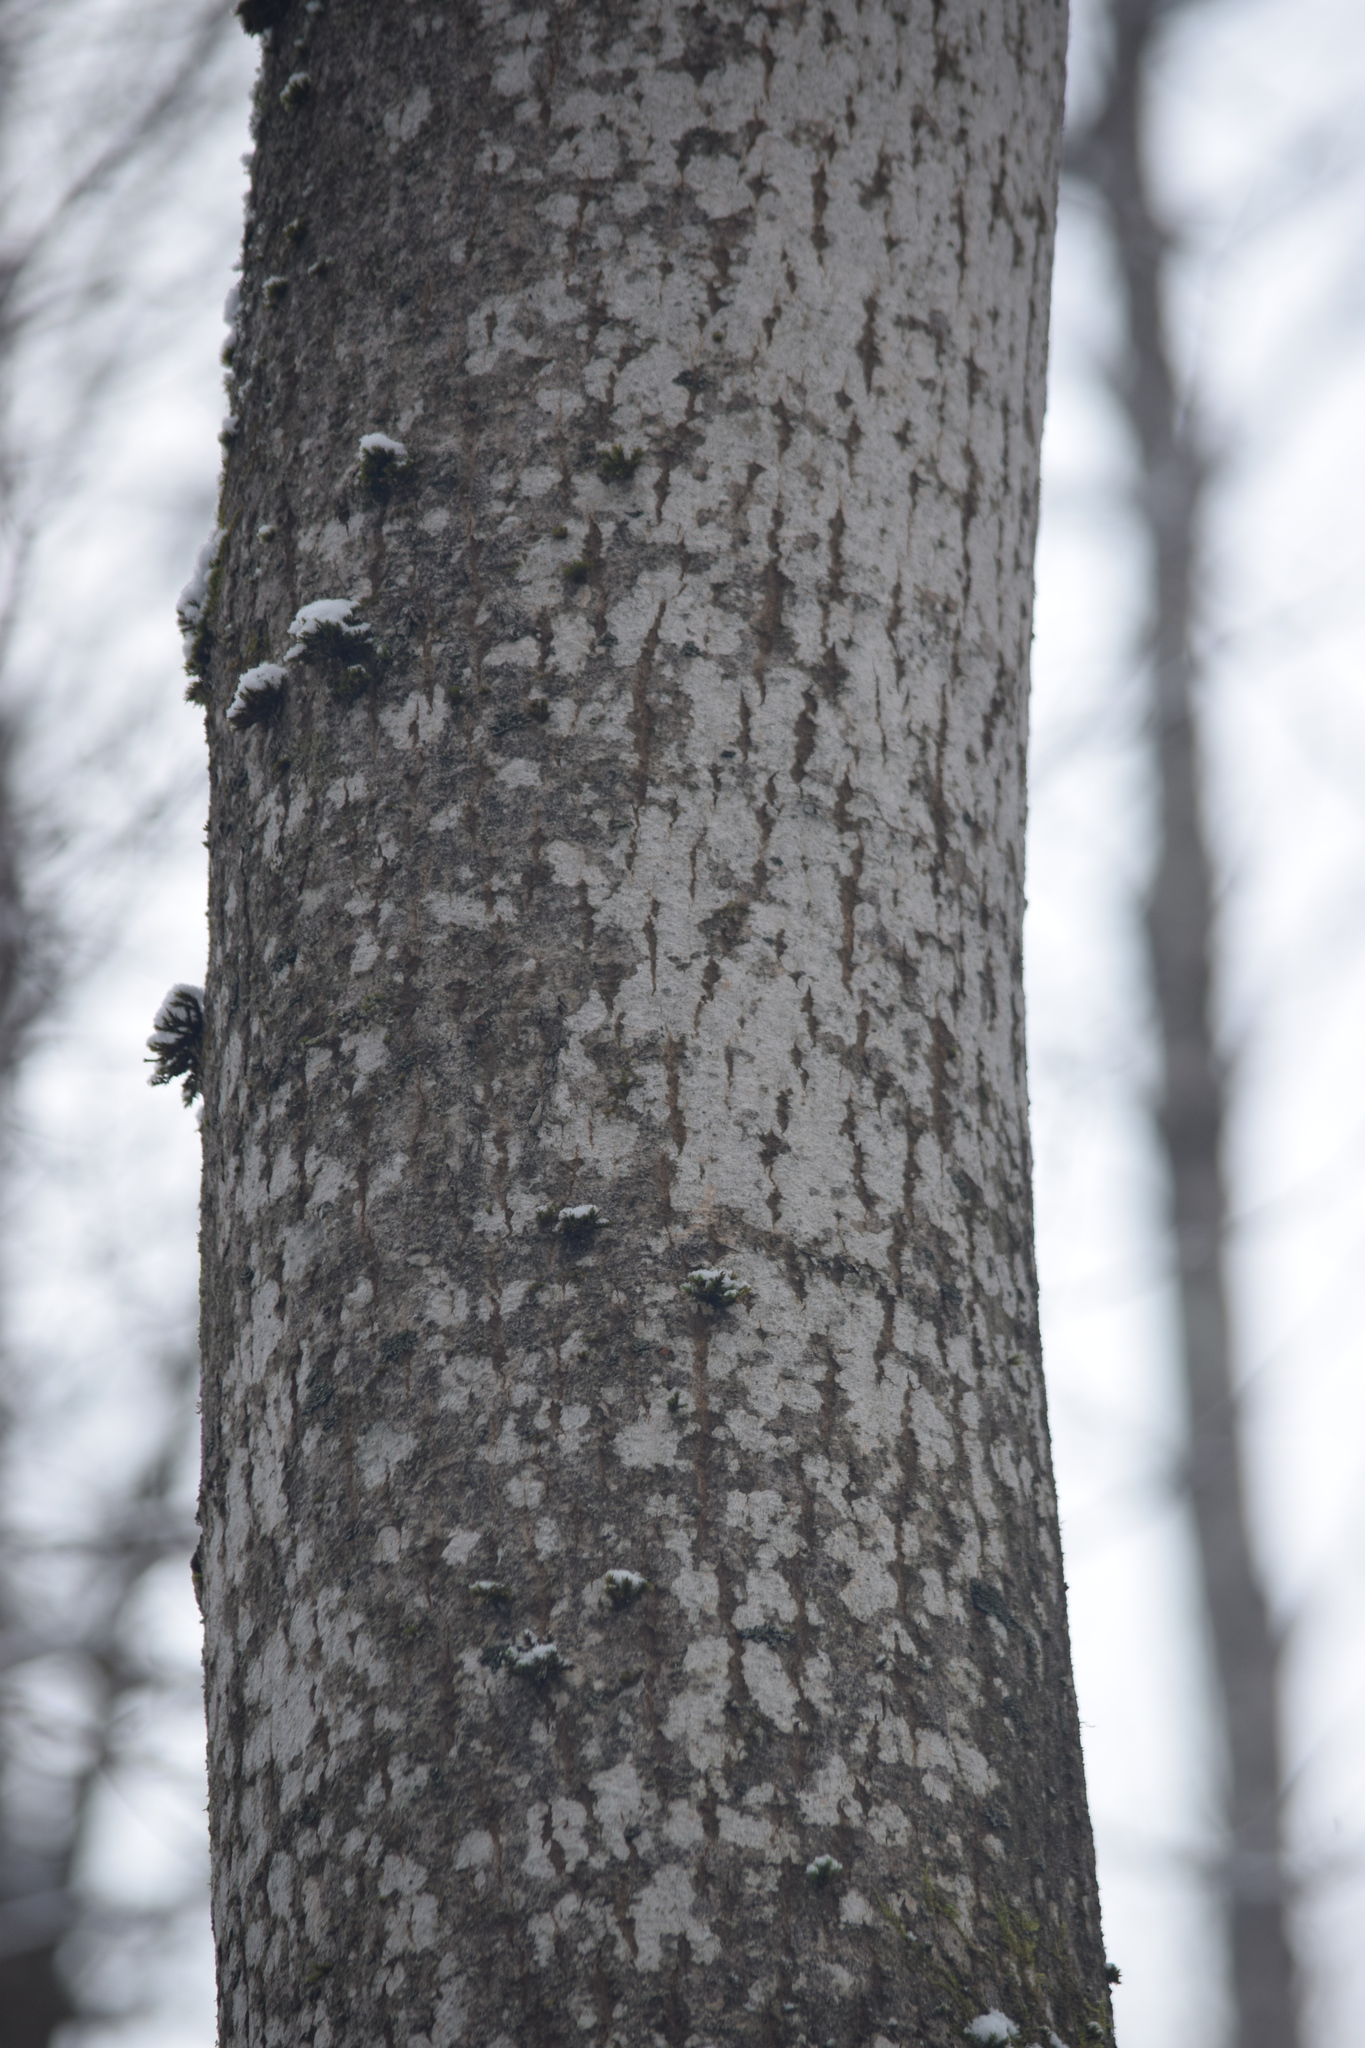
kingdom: Plantae
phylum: Tracheophyta
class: Magnoliopsida
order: Malpighiales
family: Salicaceae
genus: Populus
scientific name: Populus tremula
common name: European aspen
